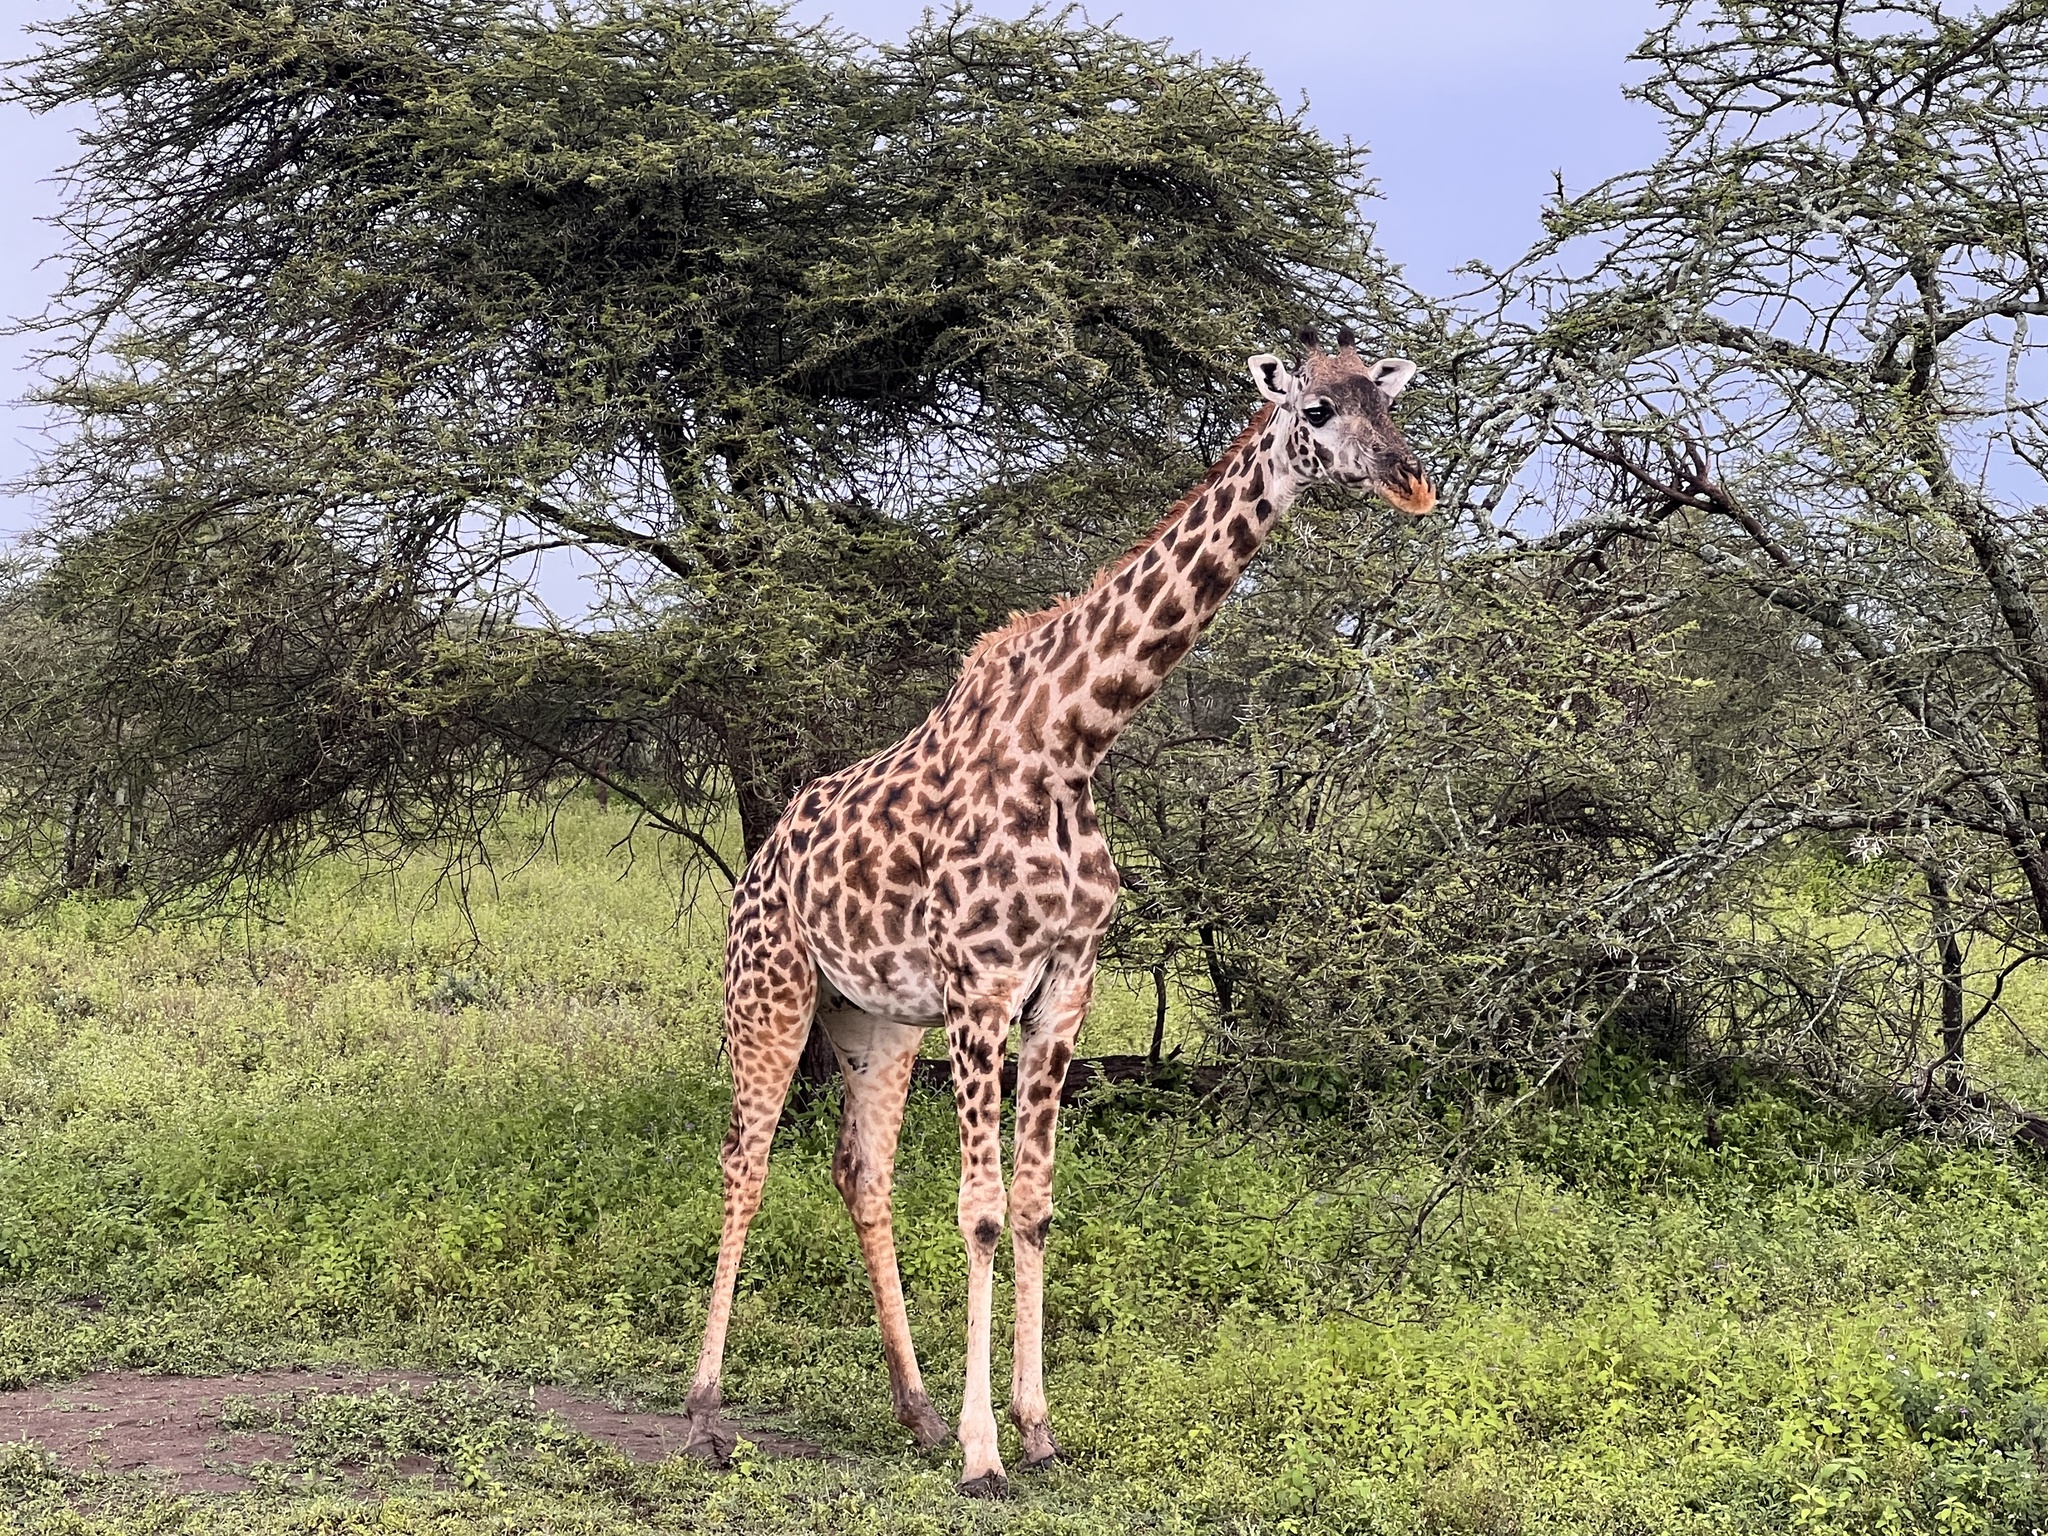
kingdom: Animalia
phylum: Chordata
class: Mammalia
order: Artiodactyla
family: Giraffidae
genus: Giraffa
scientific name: Giraffa tippelskirchi
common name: Masai giraffe
